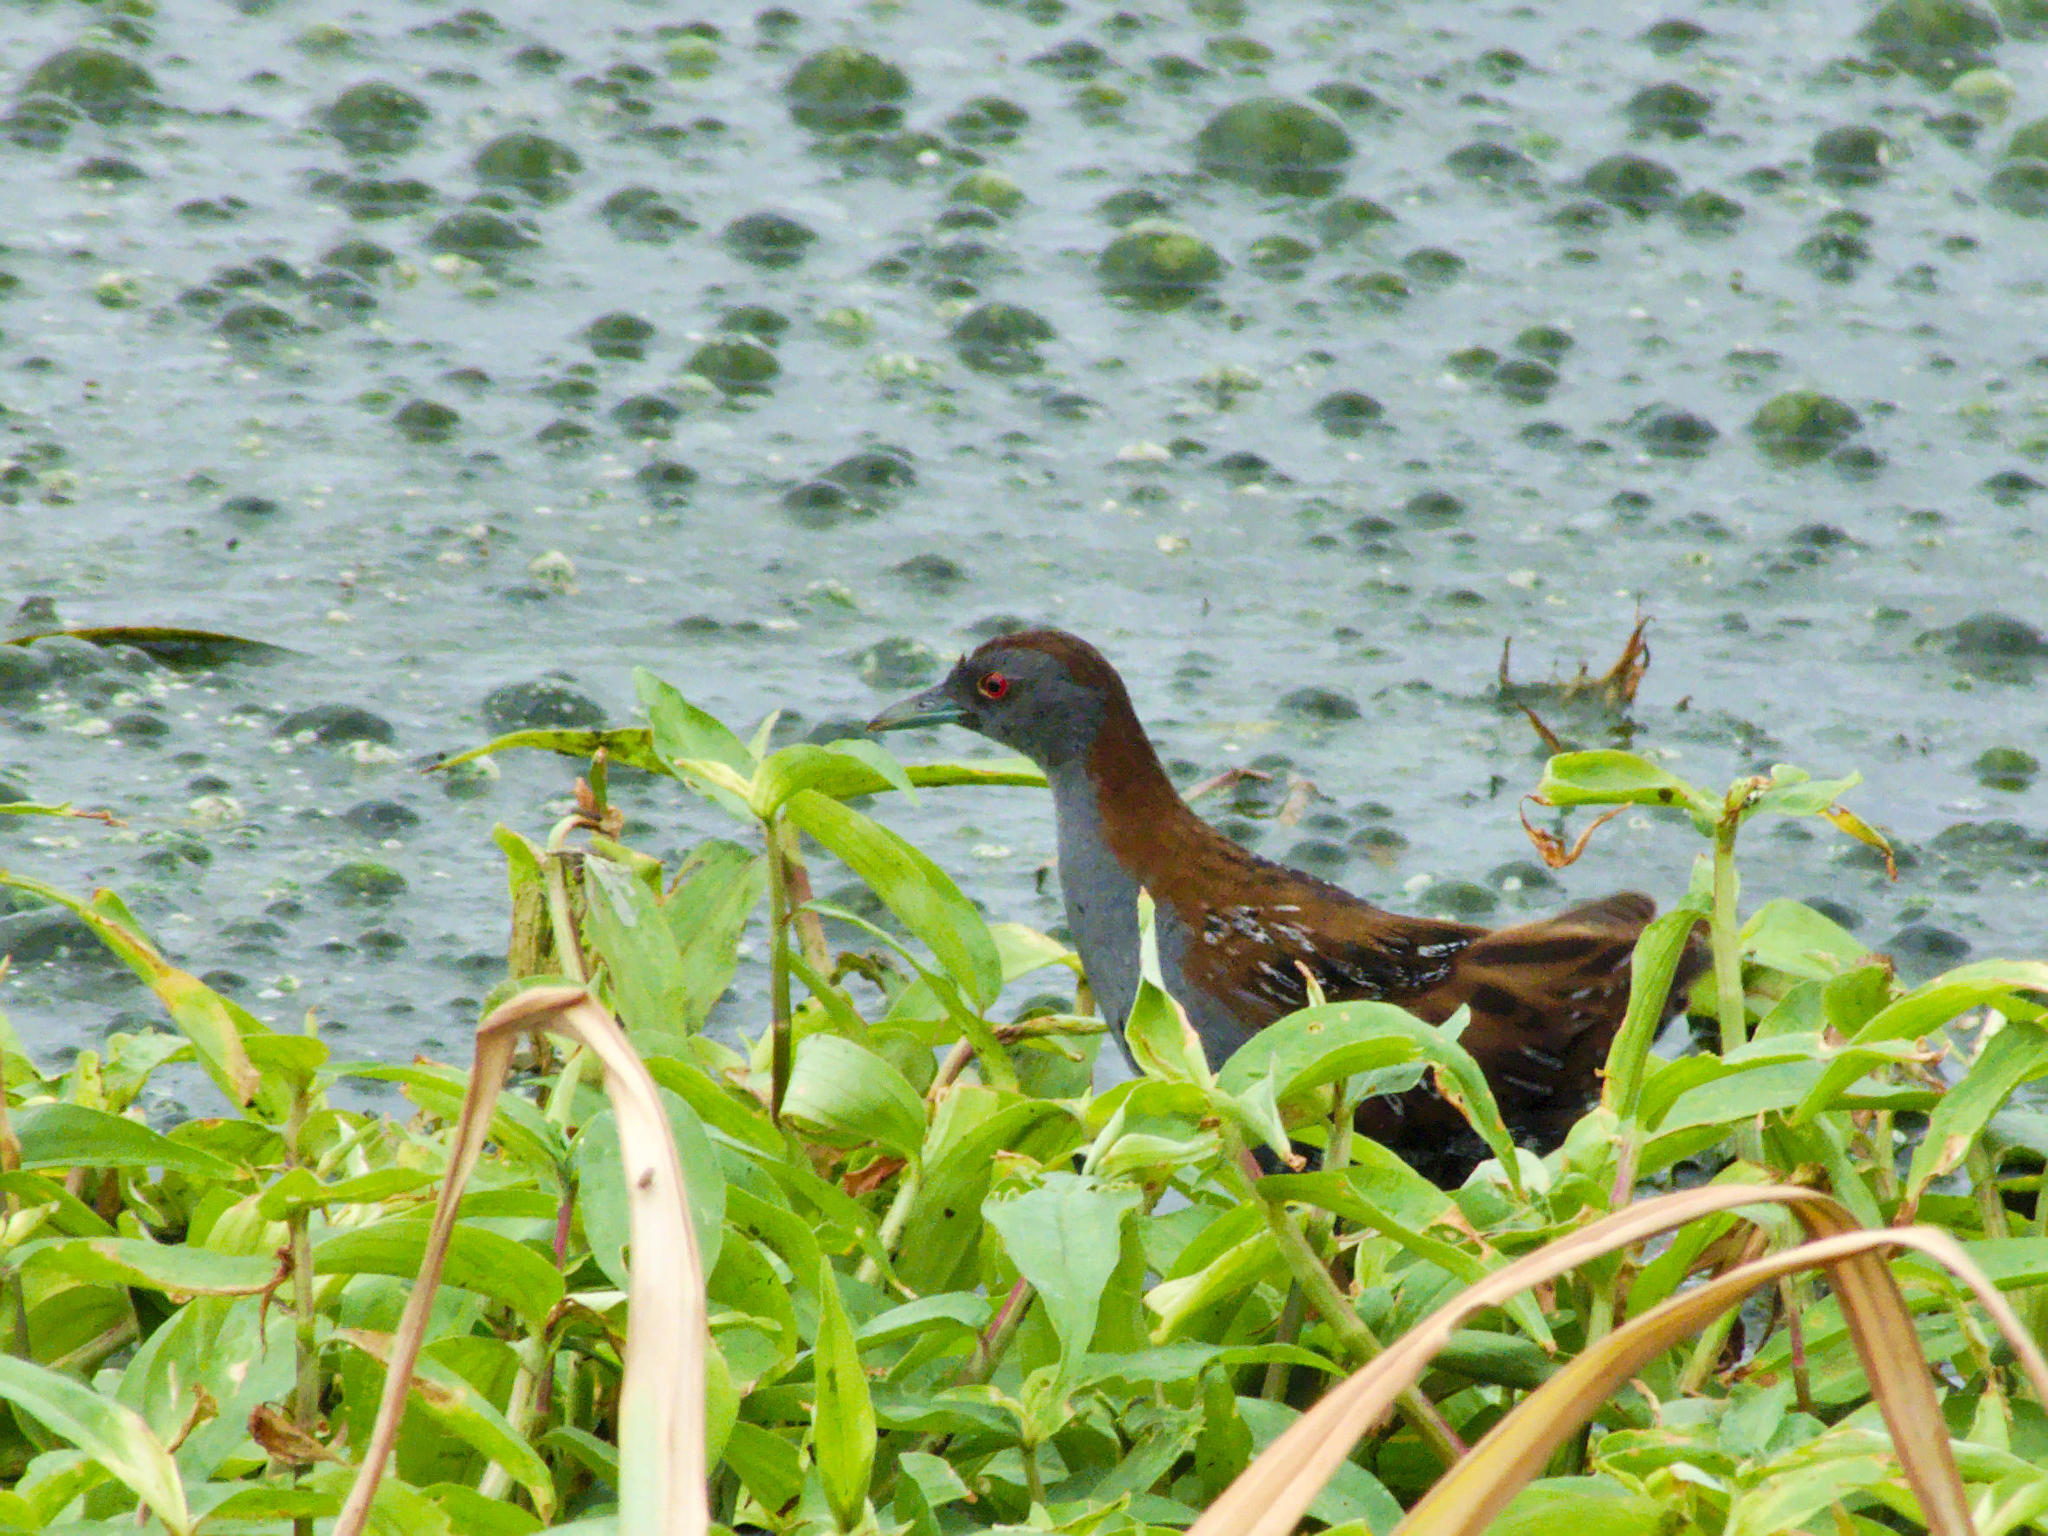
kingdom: Animalia
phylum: Chordata
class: Aves
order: Gruiformes
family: Rallidae
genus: Porzana
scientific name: Porzana pusilla
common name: Baillon's crake
